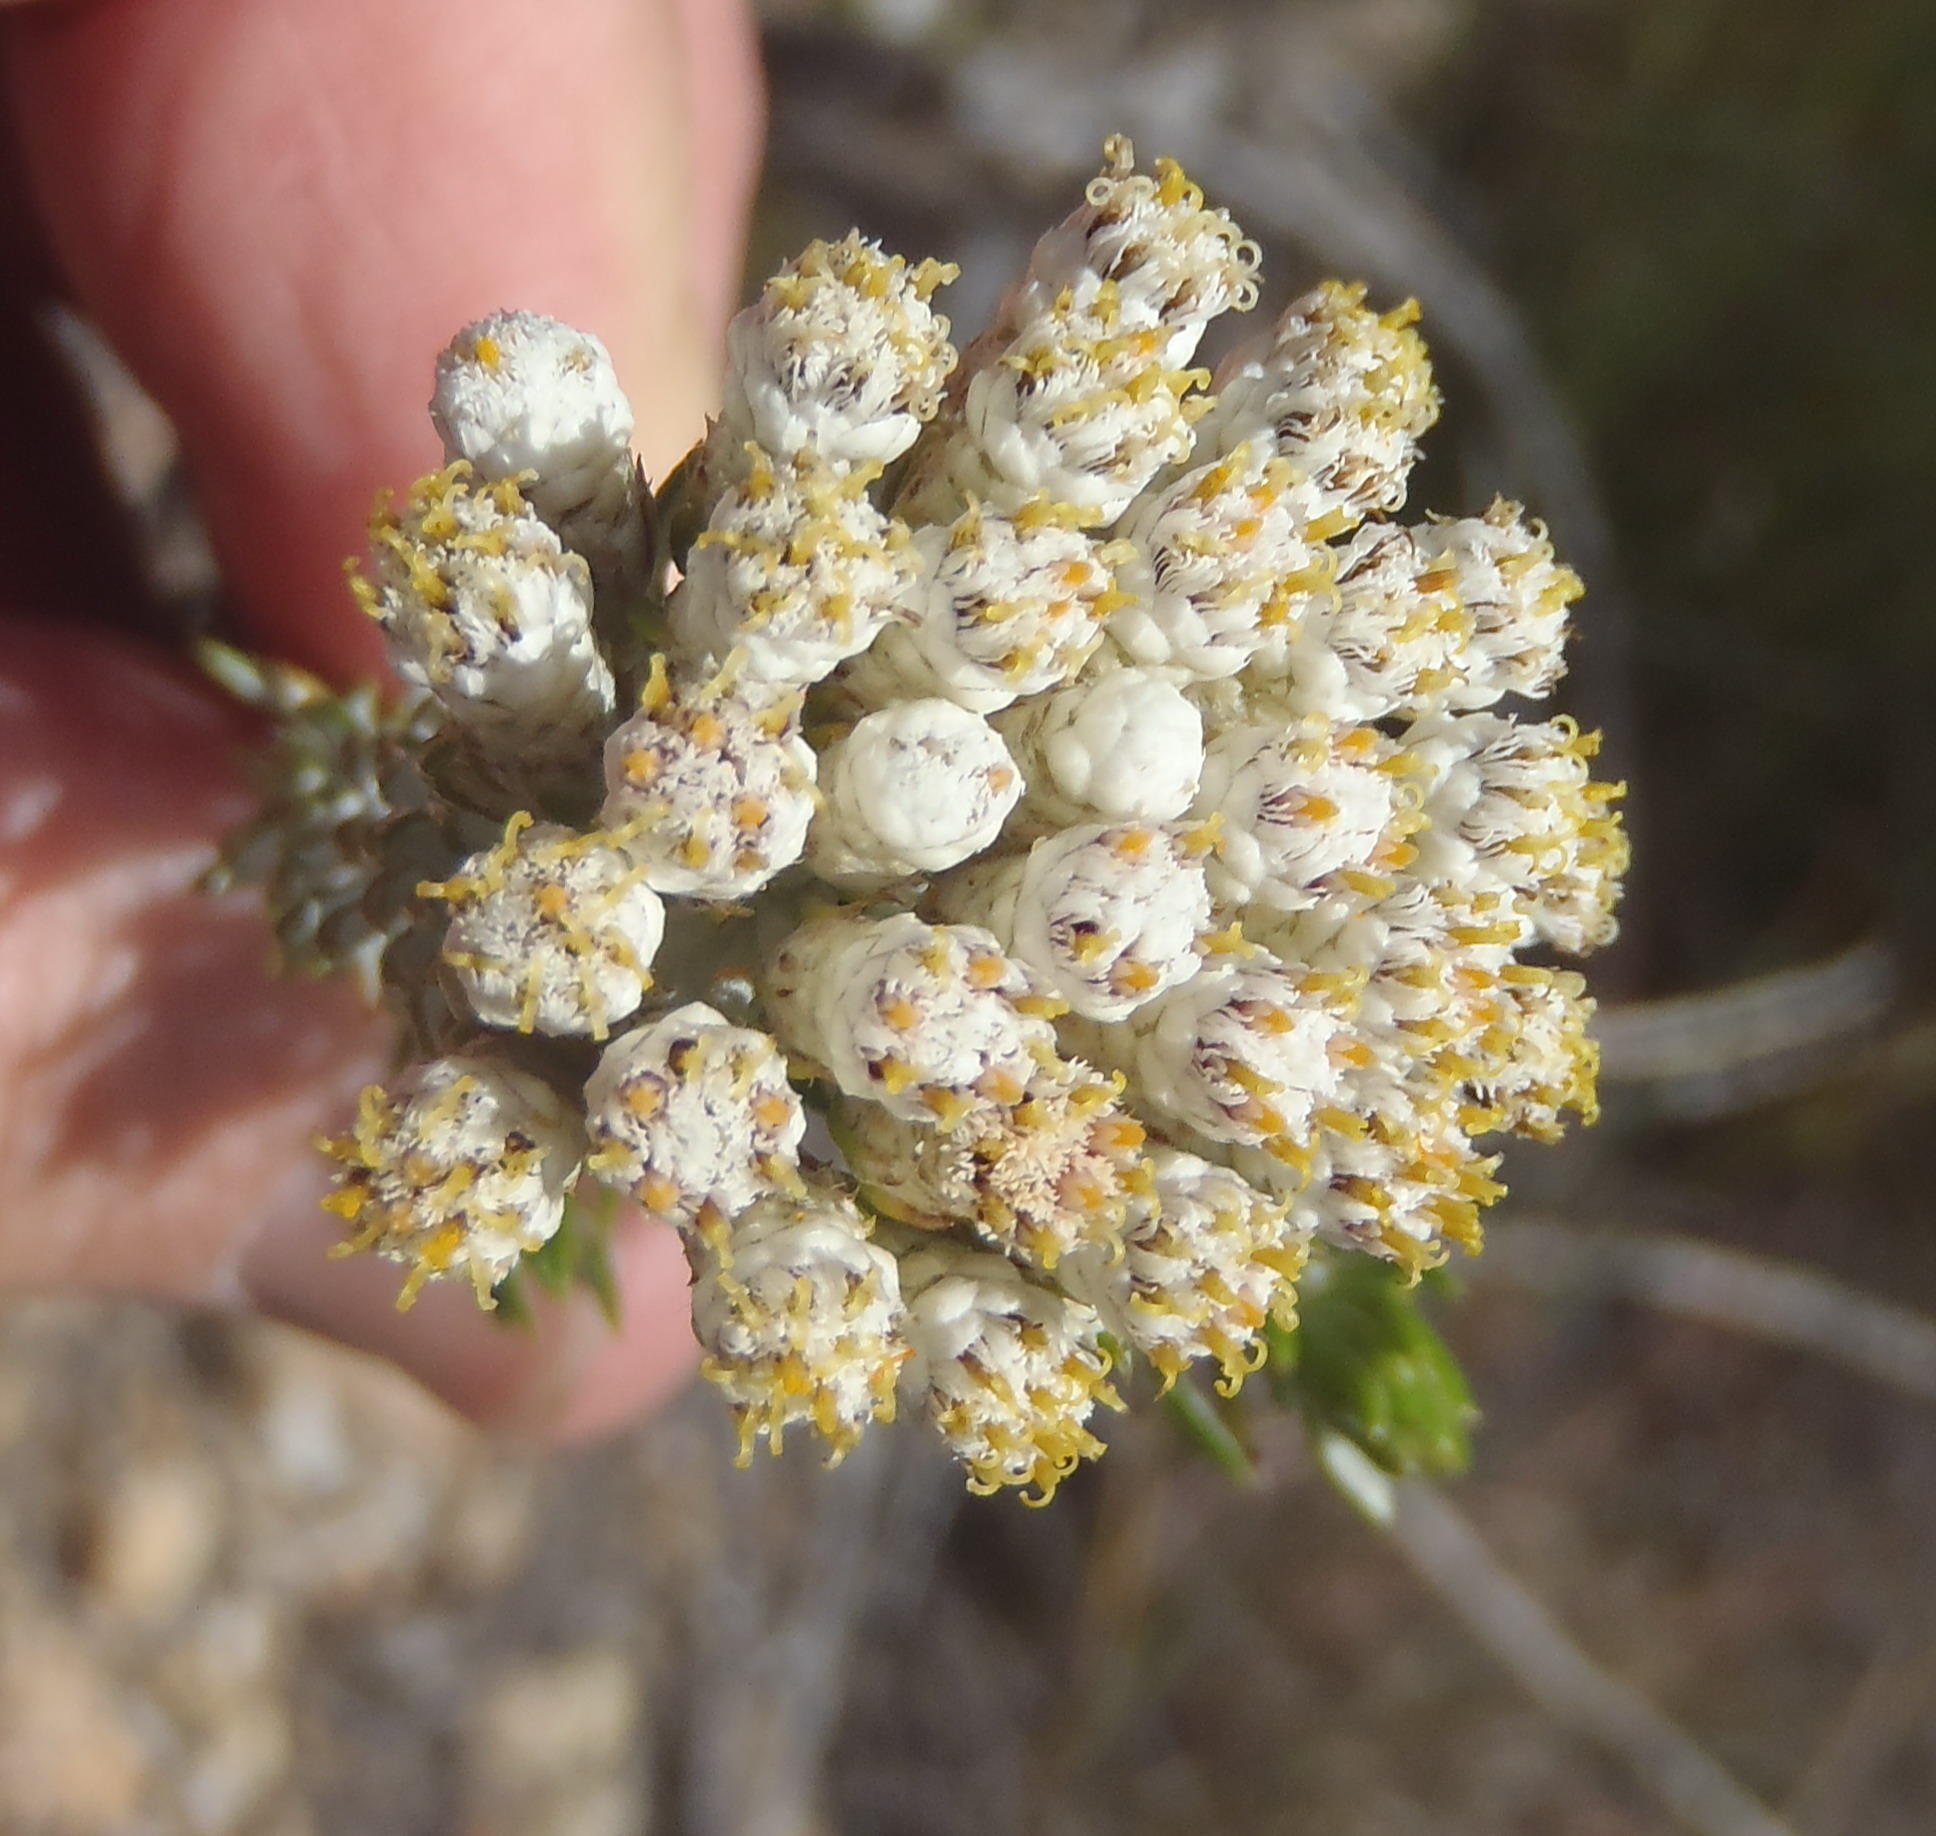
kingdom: Plantae
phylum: Tracheophyta
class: Magnoliopsida
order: Asterales
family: Asteraceae
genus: Metalasia
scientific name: Metalasia pallida
